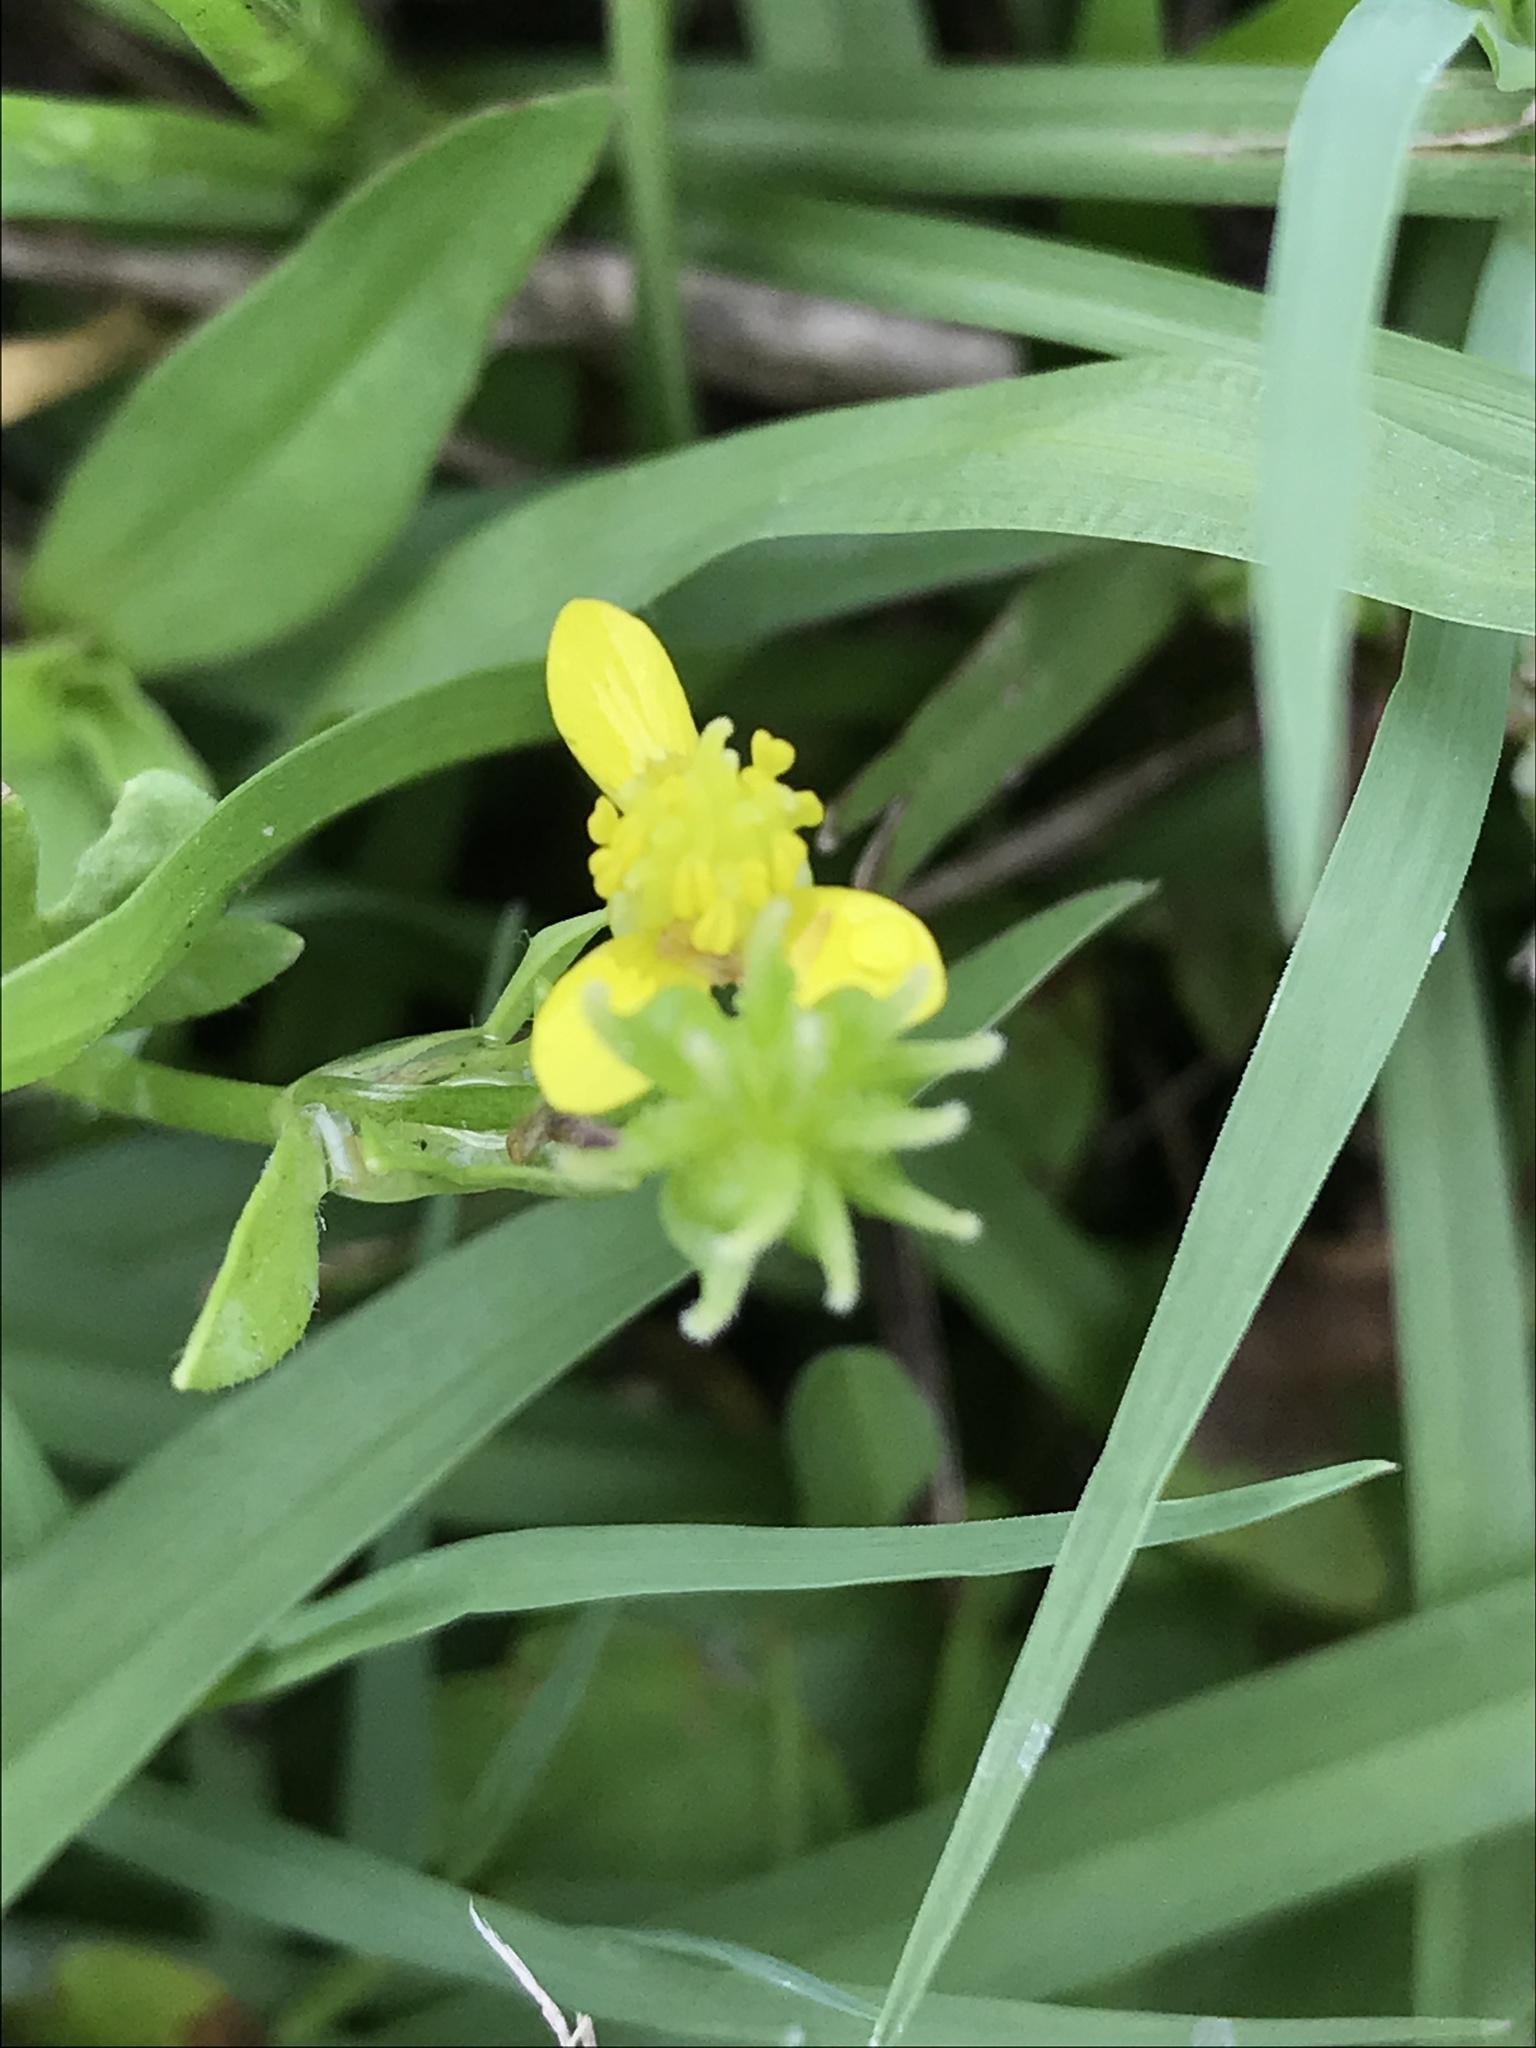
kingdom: Plantae
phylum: Tracheophyta
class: Magnoliopsida
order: Ranunculales
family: Ranunculaceae
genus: Ranunculus
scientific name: Ranunculus muricatus
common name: Rough-fruited buttercup
